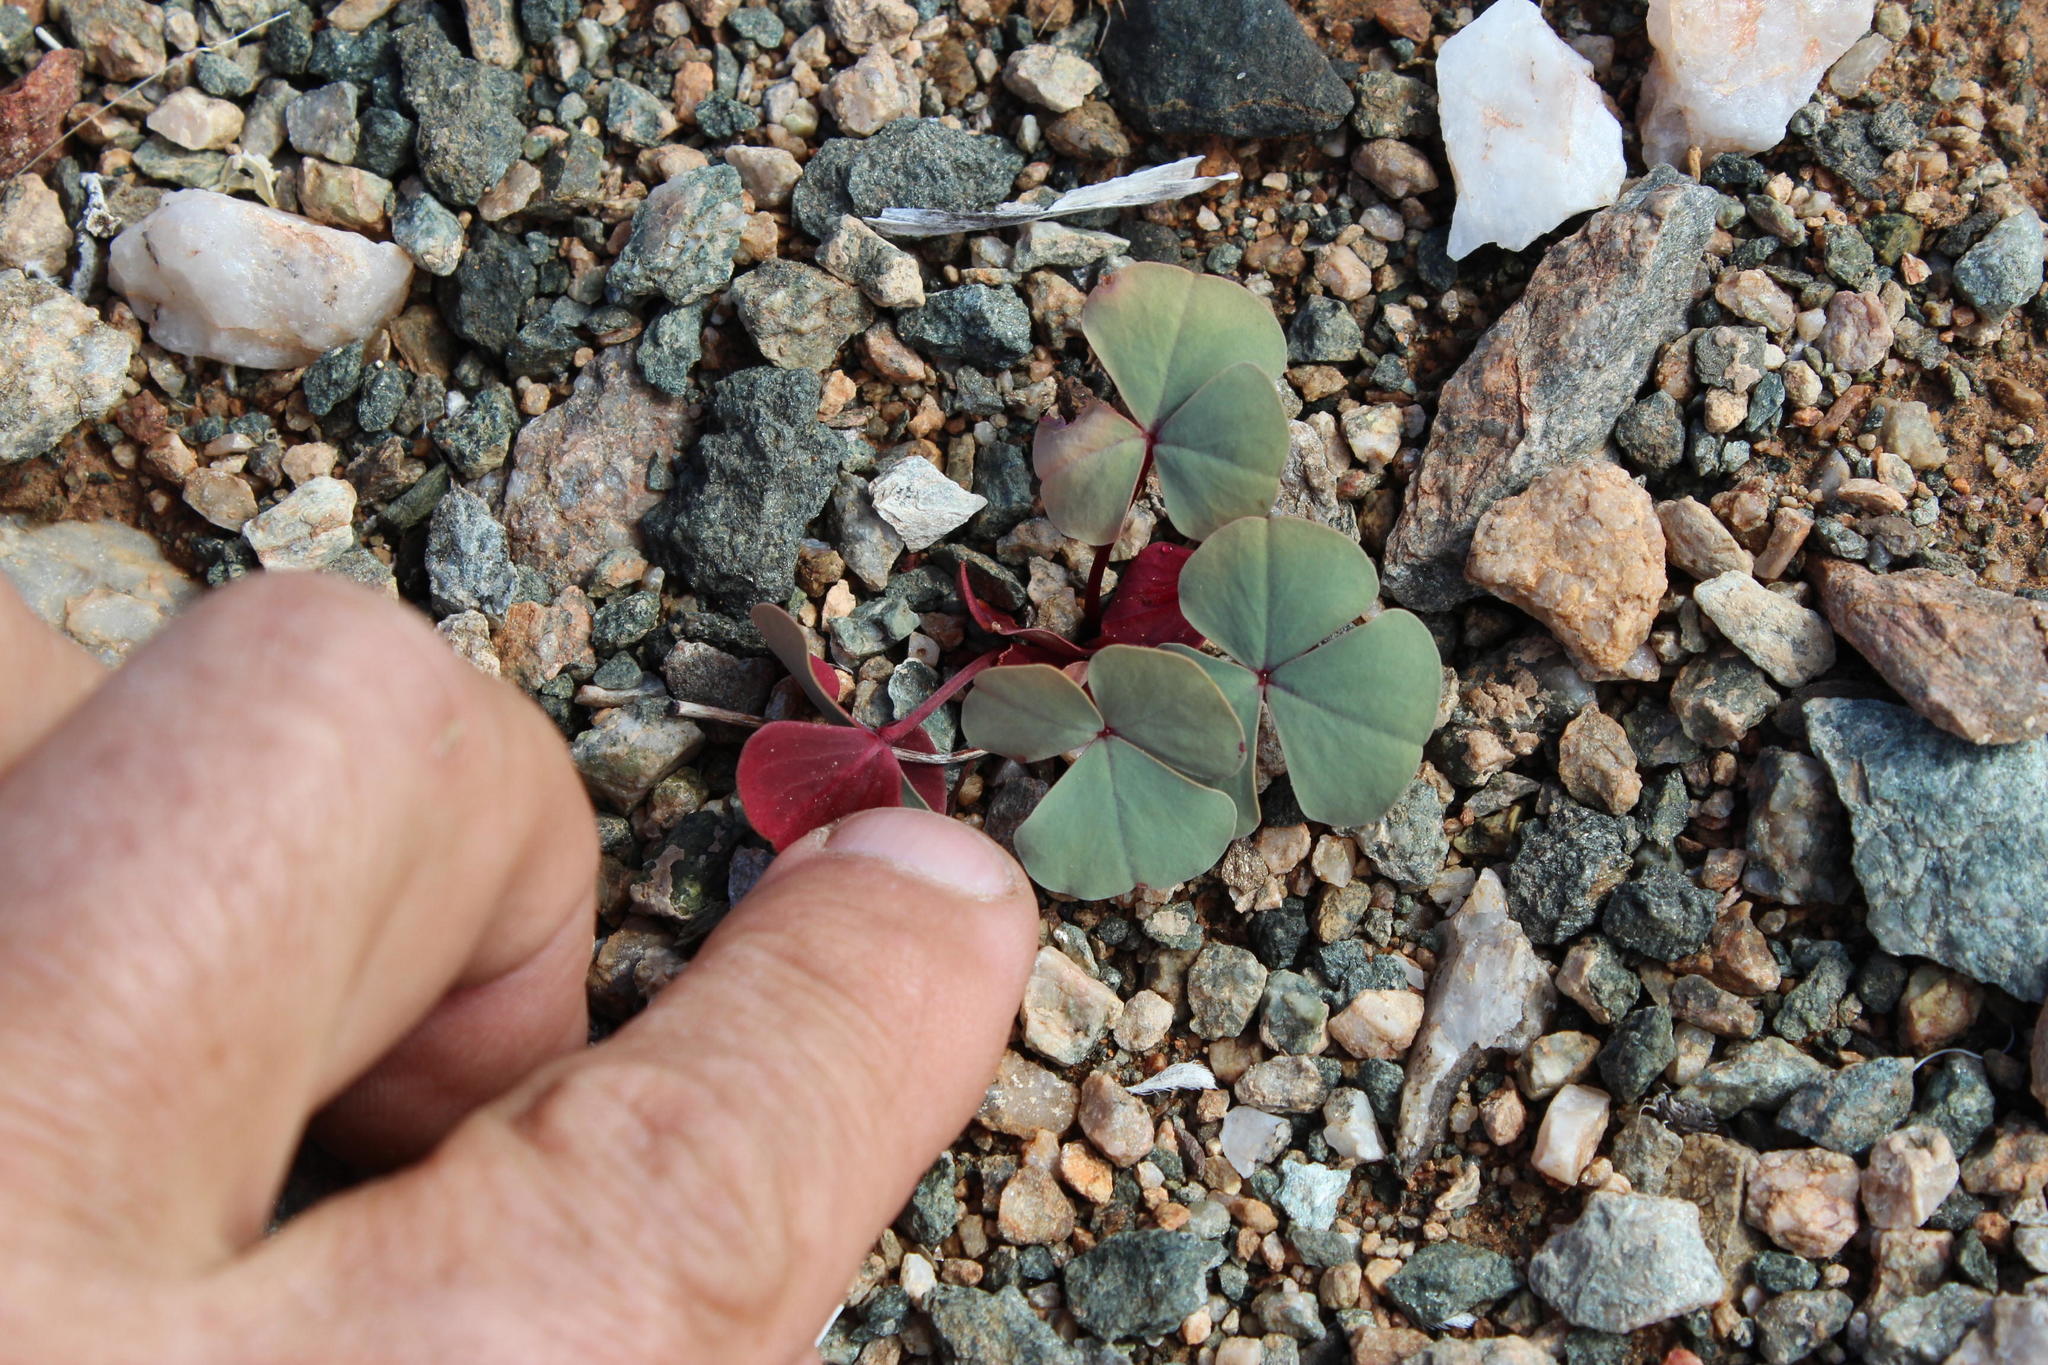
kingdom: Plantae
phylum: Tracheophyta
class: Magnoliopsida
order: Oxalidales
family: Oxalidaceae
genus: Oxalis
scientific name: Oxalis psammophila
